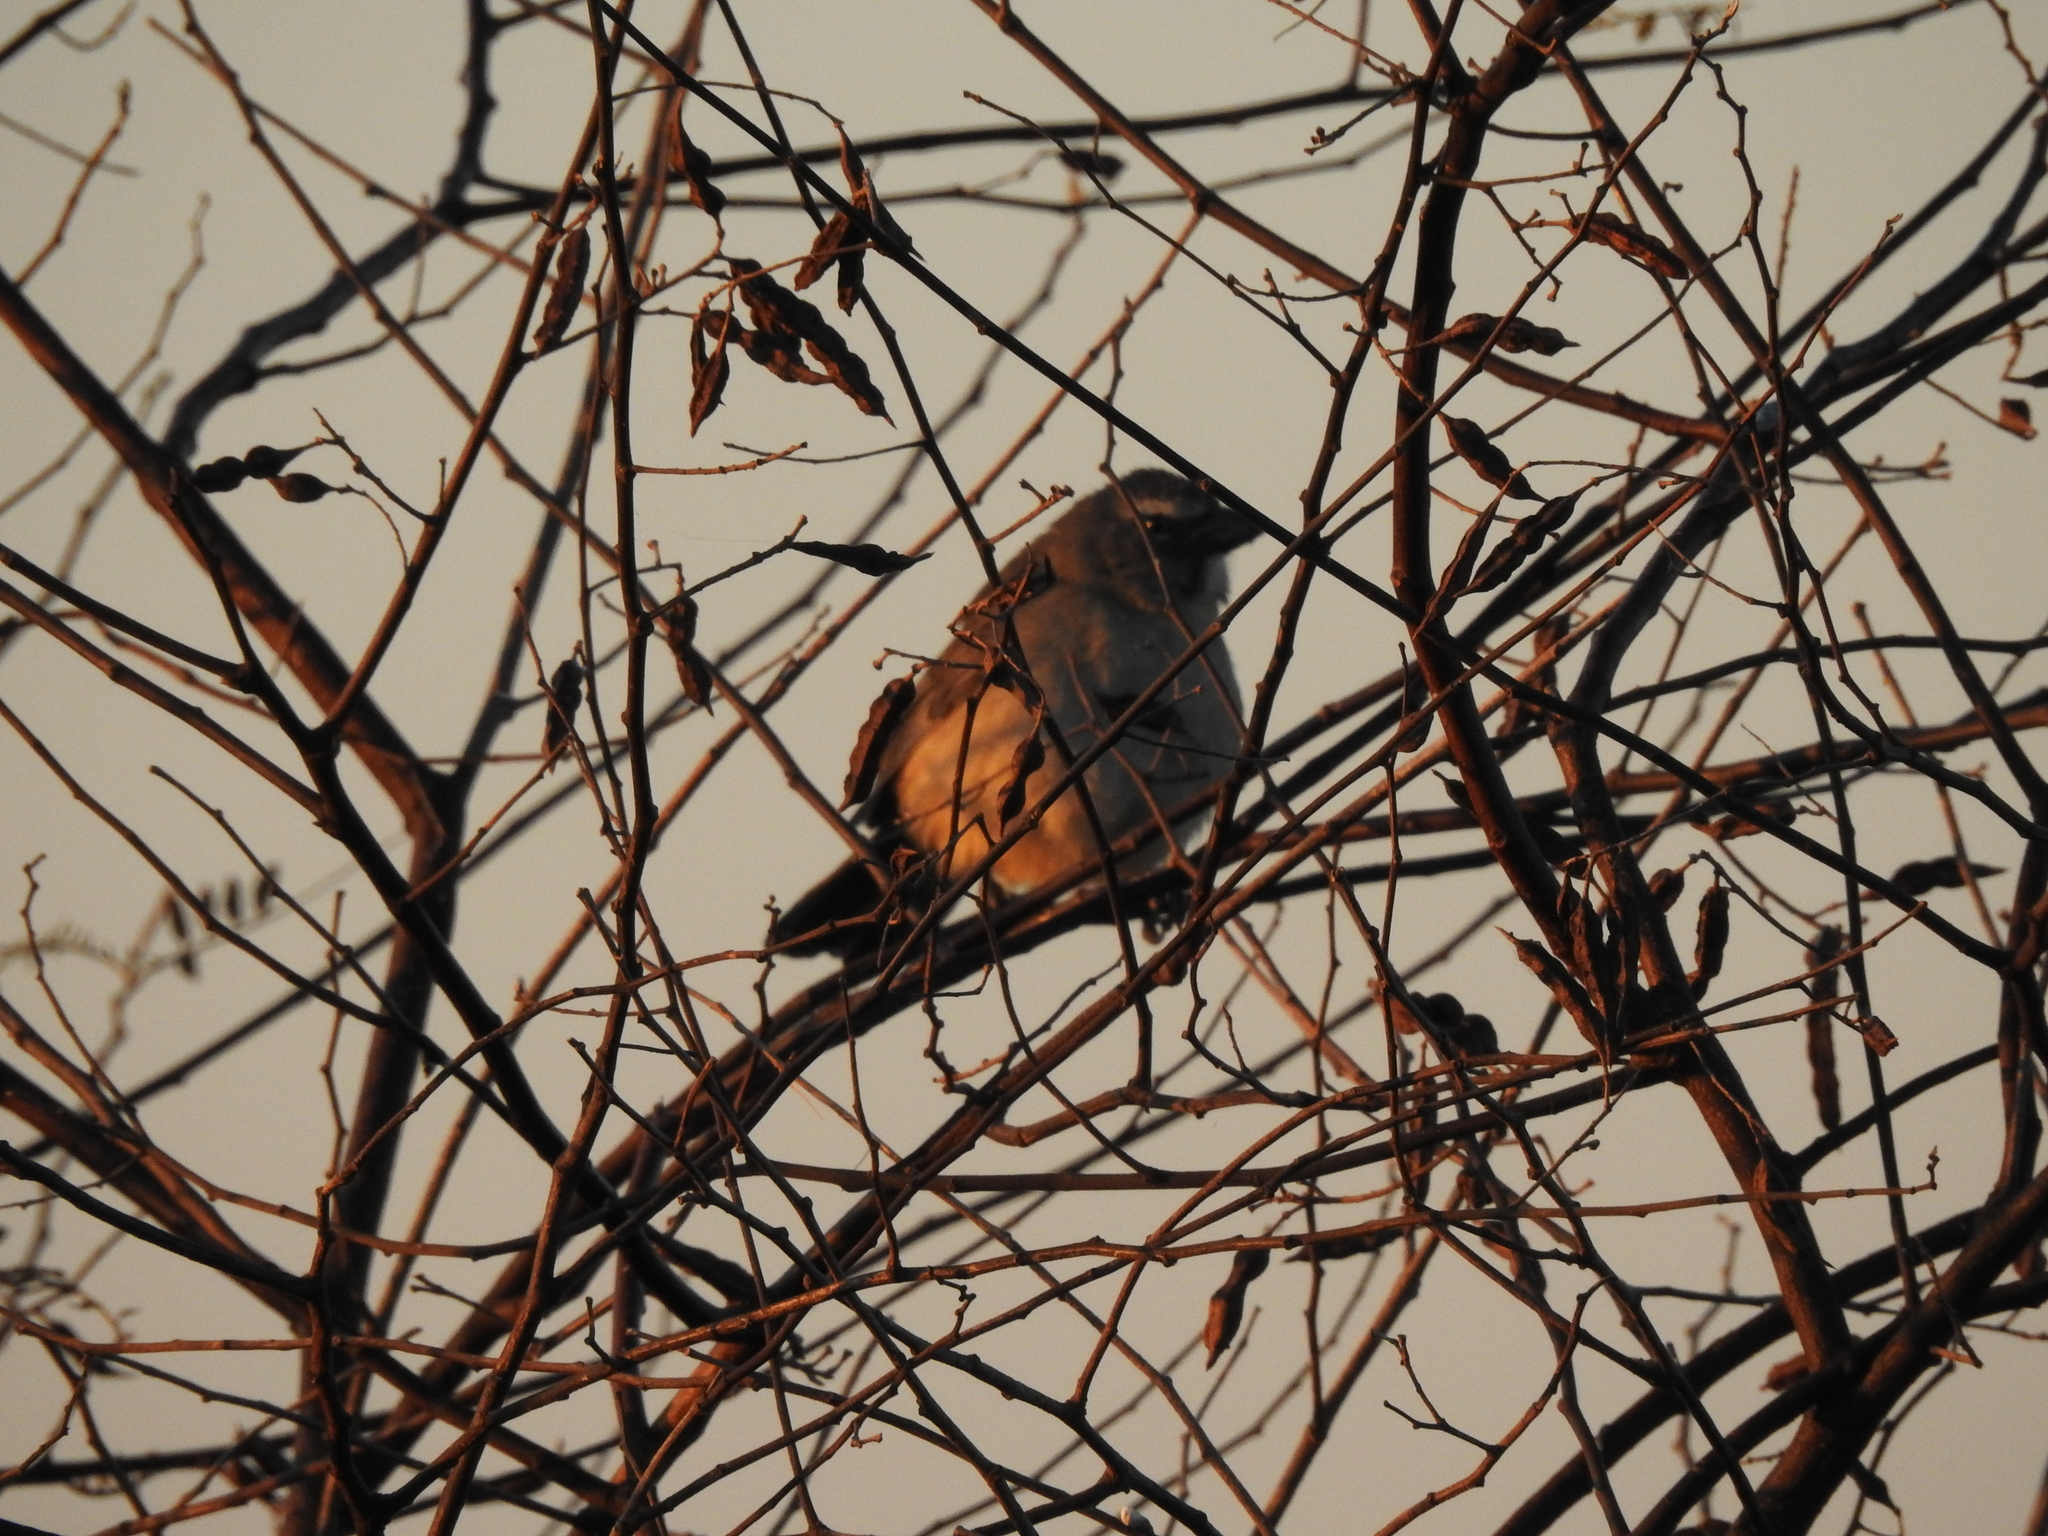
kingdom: Animalia
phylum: Chordata
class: Aves
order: Passeriformes
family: Thraupidae
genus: Saltator
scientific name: Saltator coerulescens
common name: Grayish saltator
